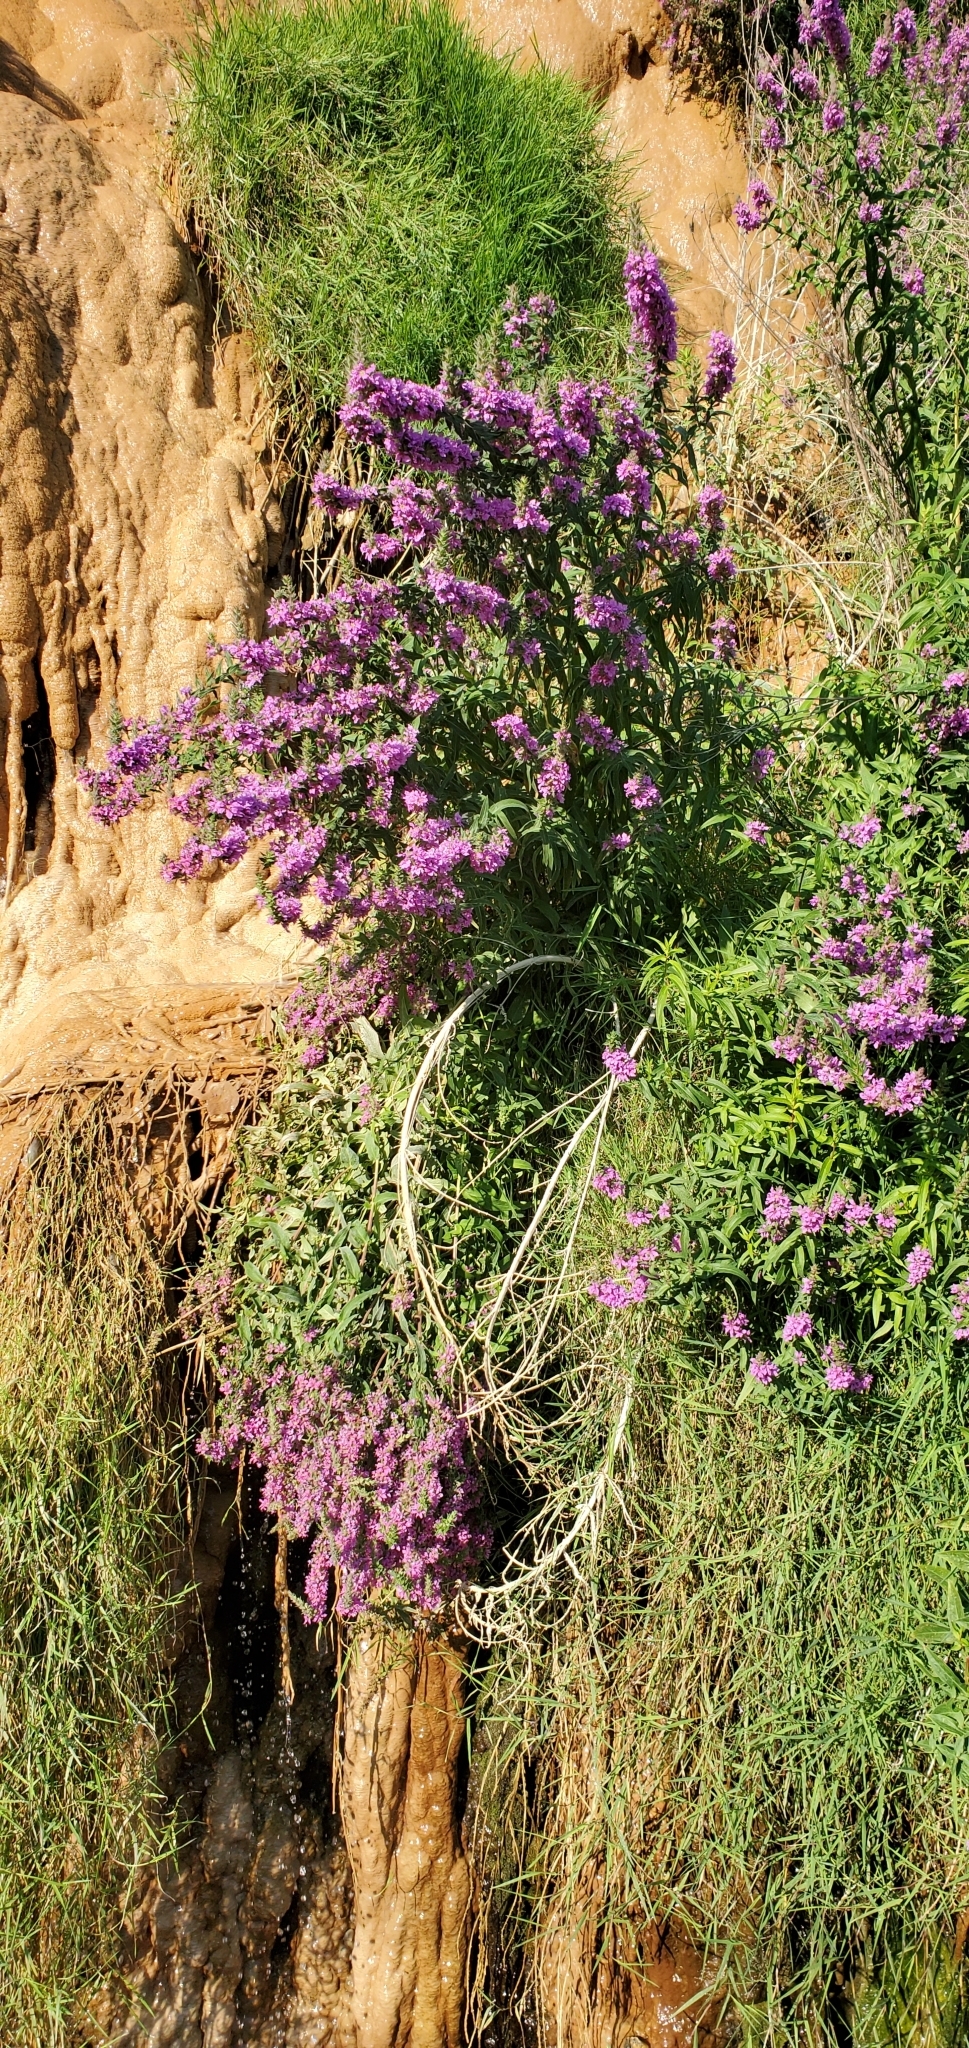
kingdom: Plantae
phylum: Tracheophyta
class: Magnoliopsida
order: Myrtales
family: Lythraceae
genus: Lythrum
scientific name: Lythrum salicaria
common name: Purple loosestrife
